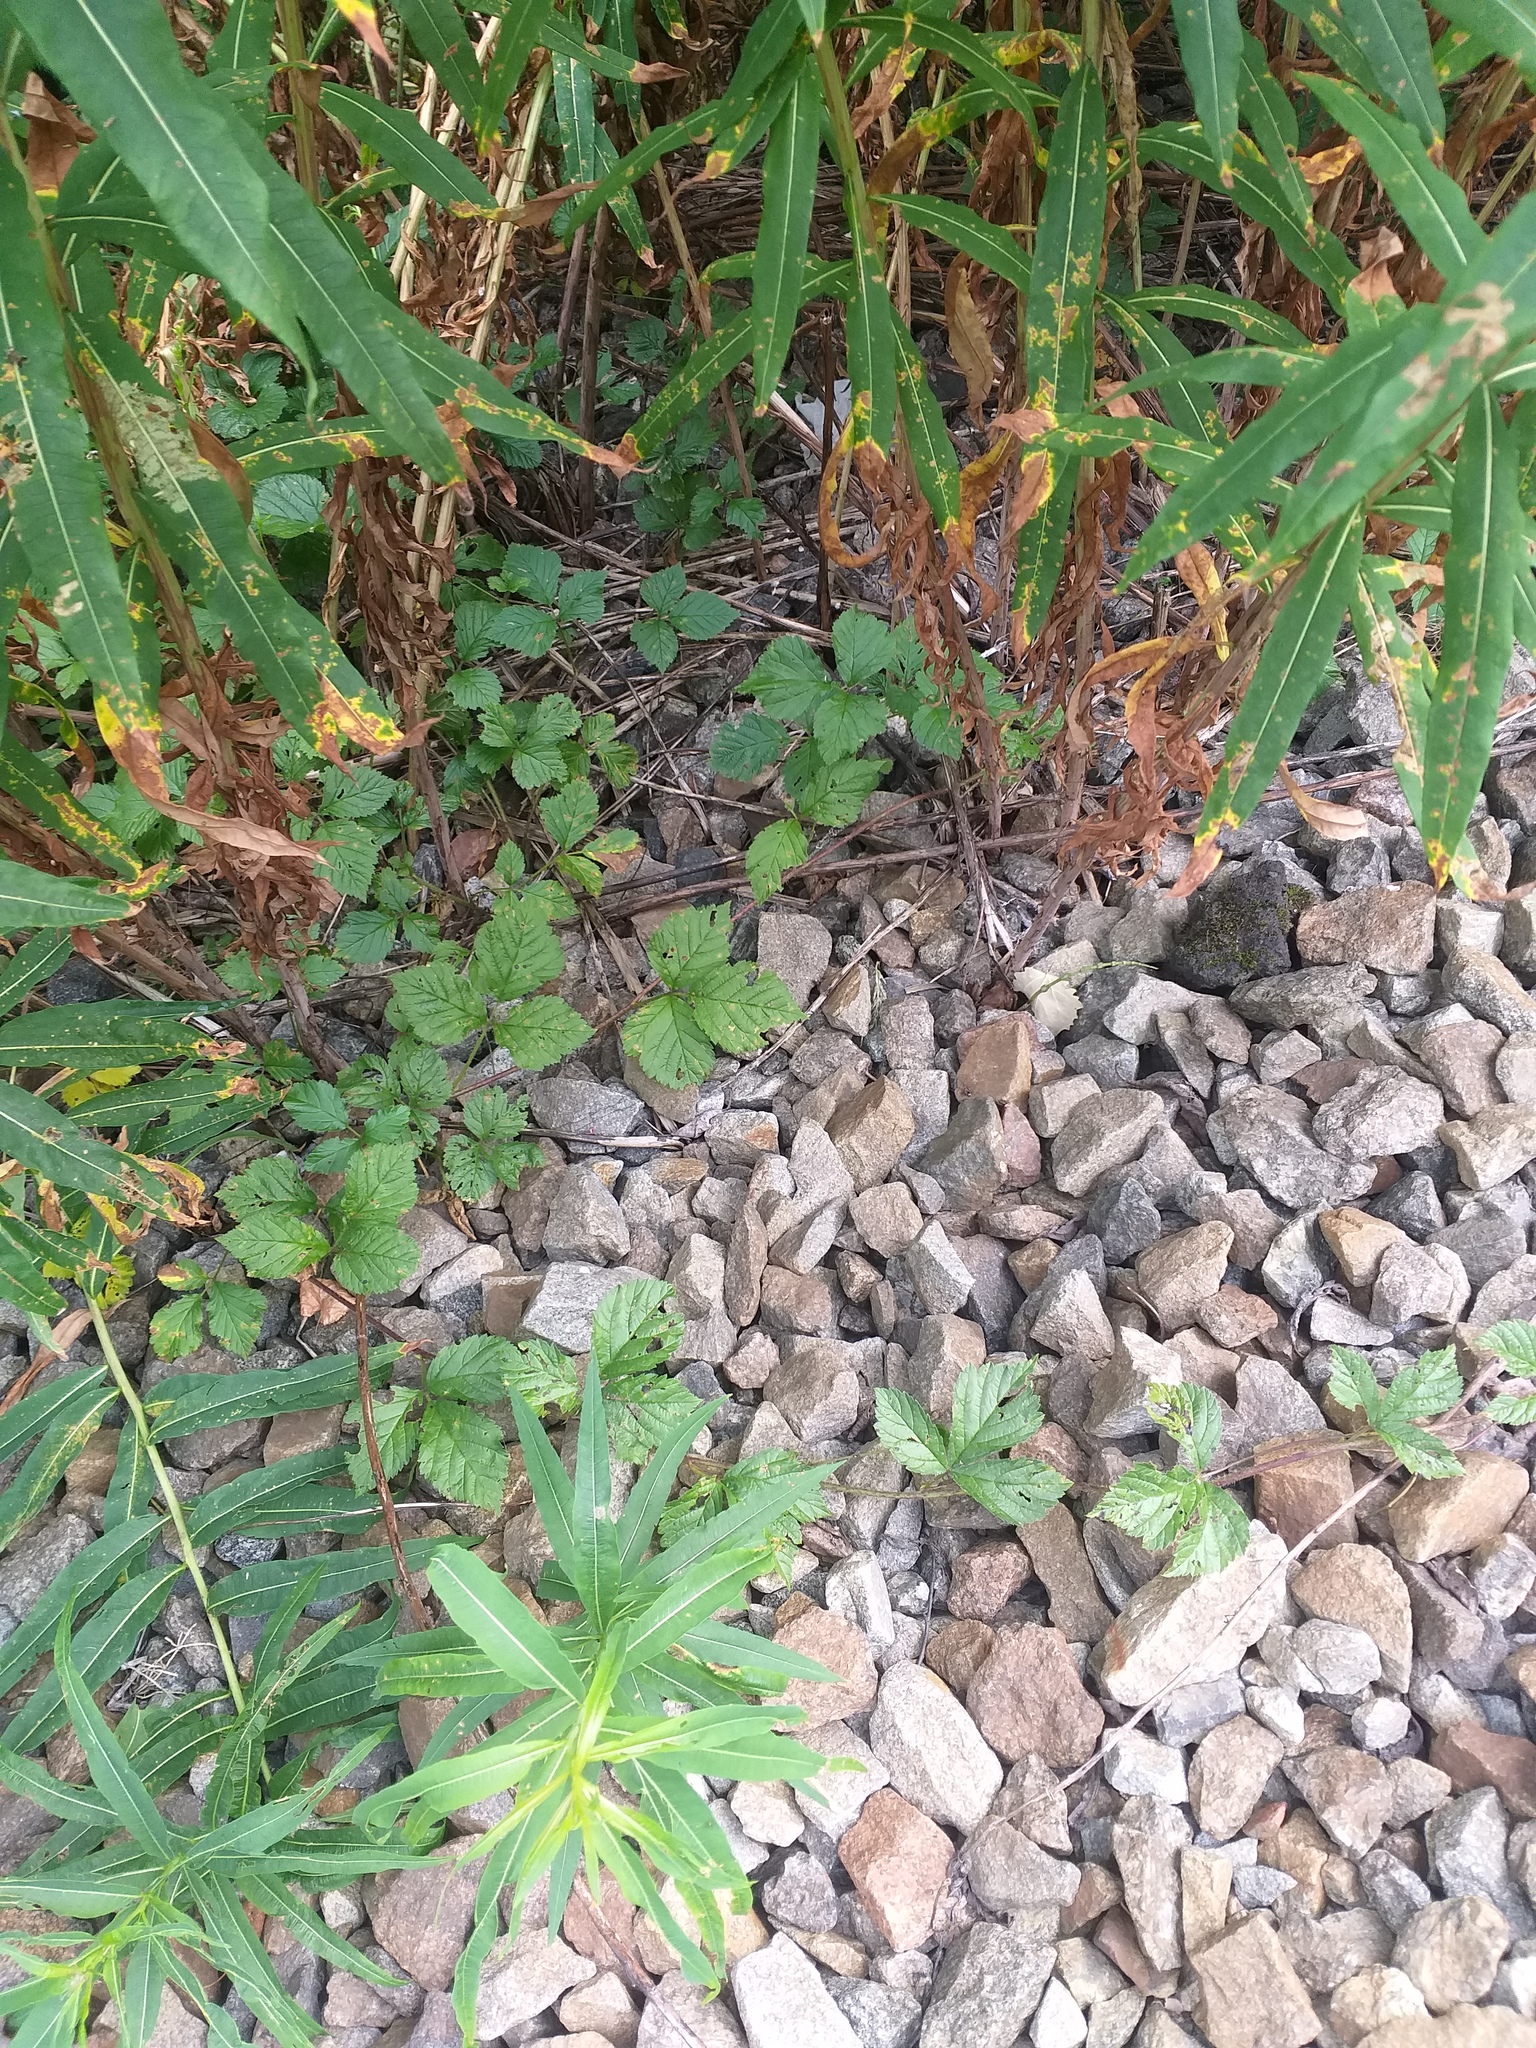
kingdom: Plantae
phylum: Tracheophyta
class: Magnoliopsida
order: Rosales
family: Rosaceae
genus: Rubus
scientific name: Rubus saxatilis
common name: Stone bramble
